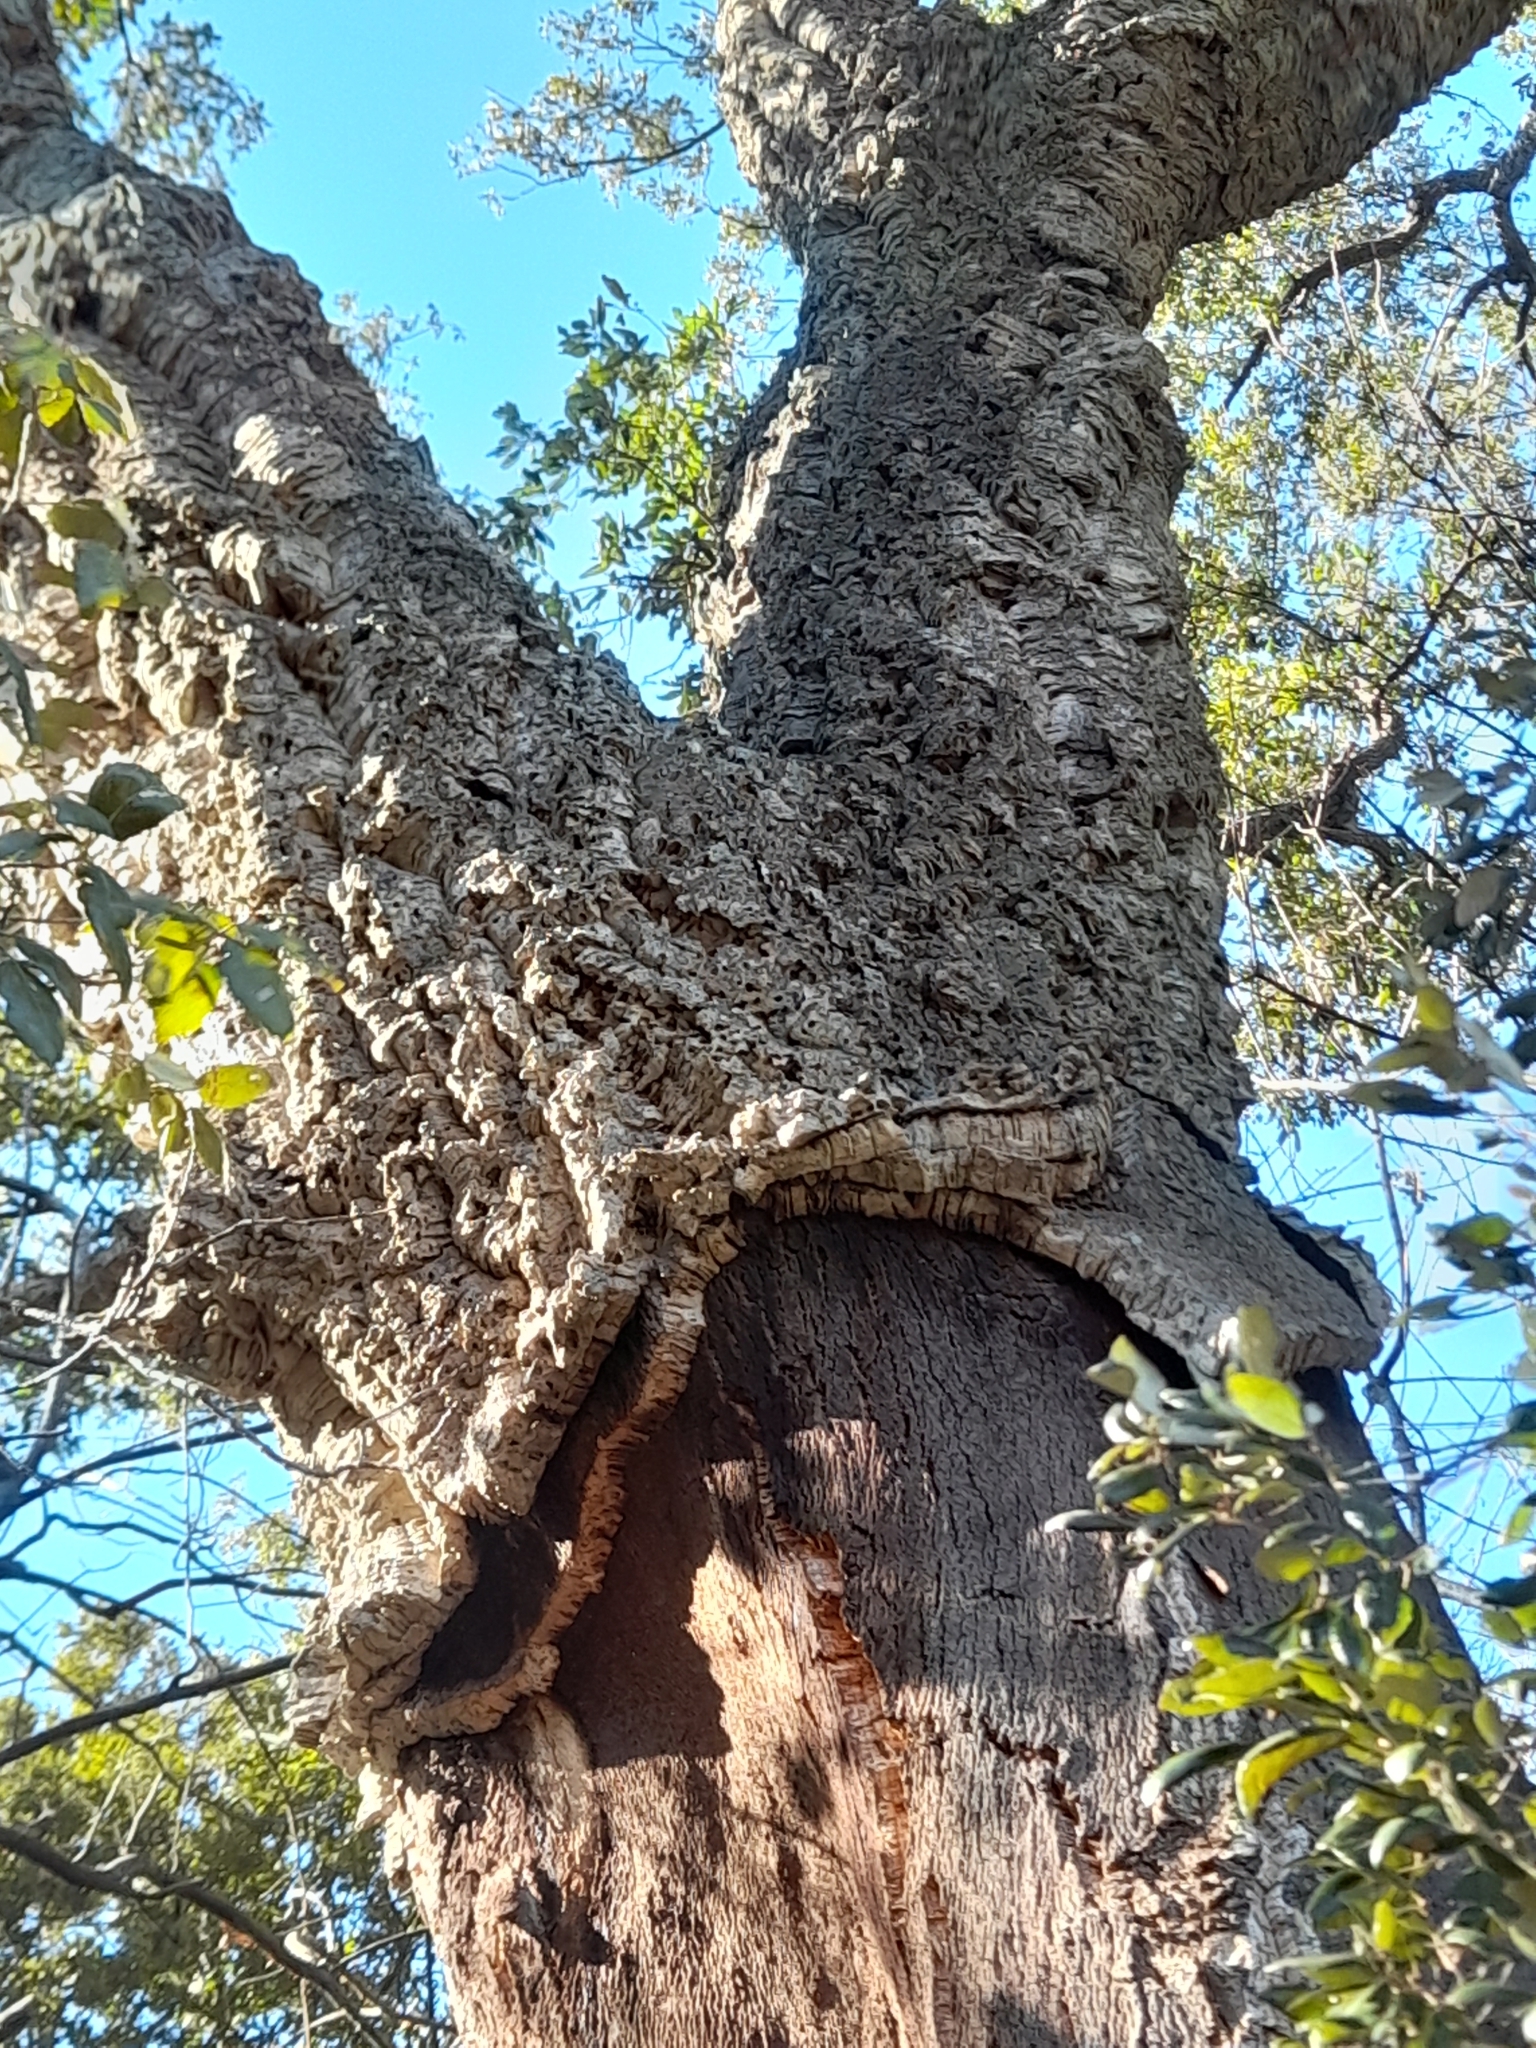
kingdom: Plantae
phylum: Tracheophyta
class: Magnoliopsida
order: Fagales
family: Fagaceae
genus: Quercus
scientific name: Quercus suber
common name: Cork oak
